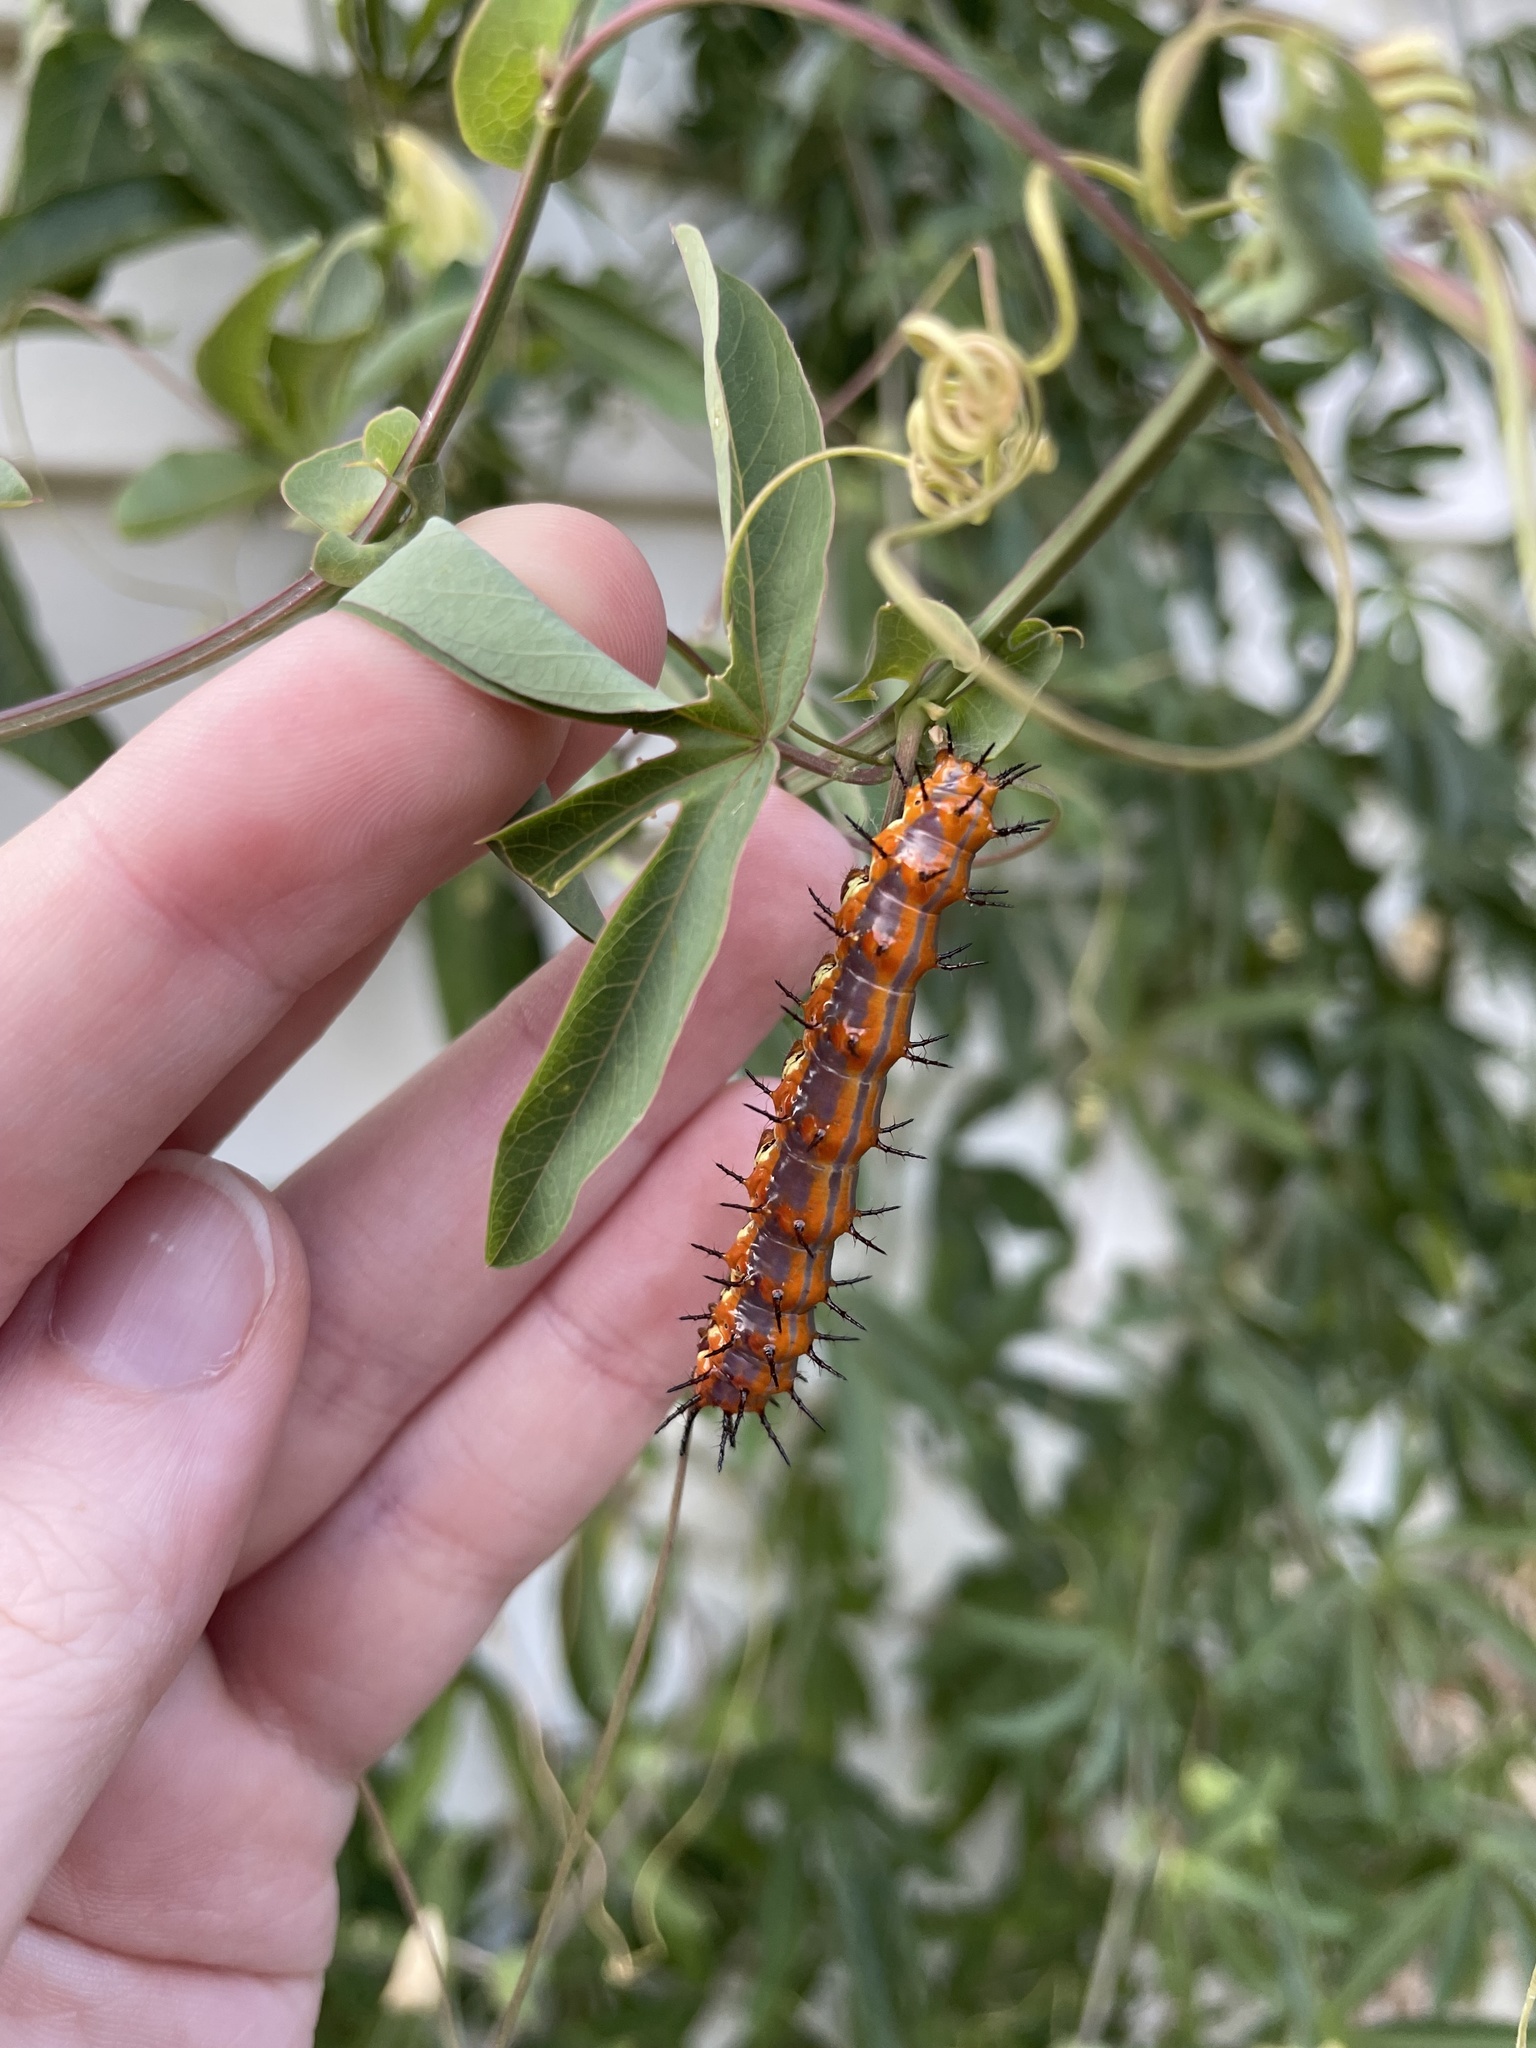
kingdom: Animalia
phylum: Arthropoda
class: Insecta
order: Lepidoptera
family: Nymphalidae
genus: Dione
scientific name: Dione vanillae
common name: Gulf fritillary
